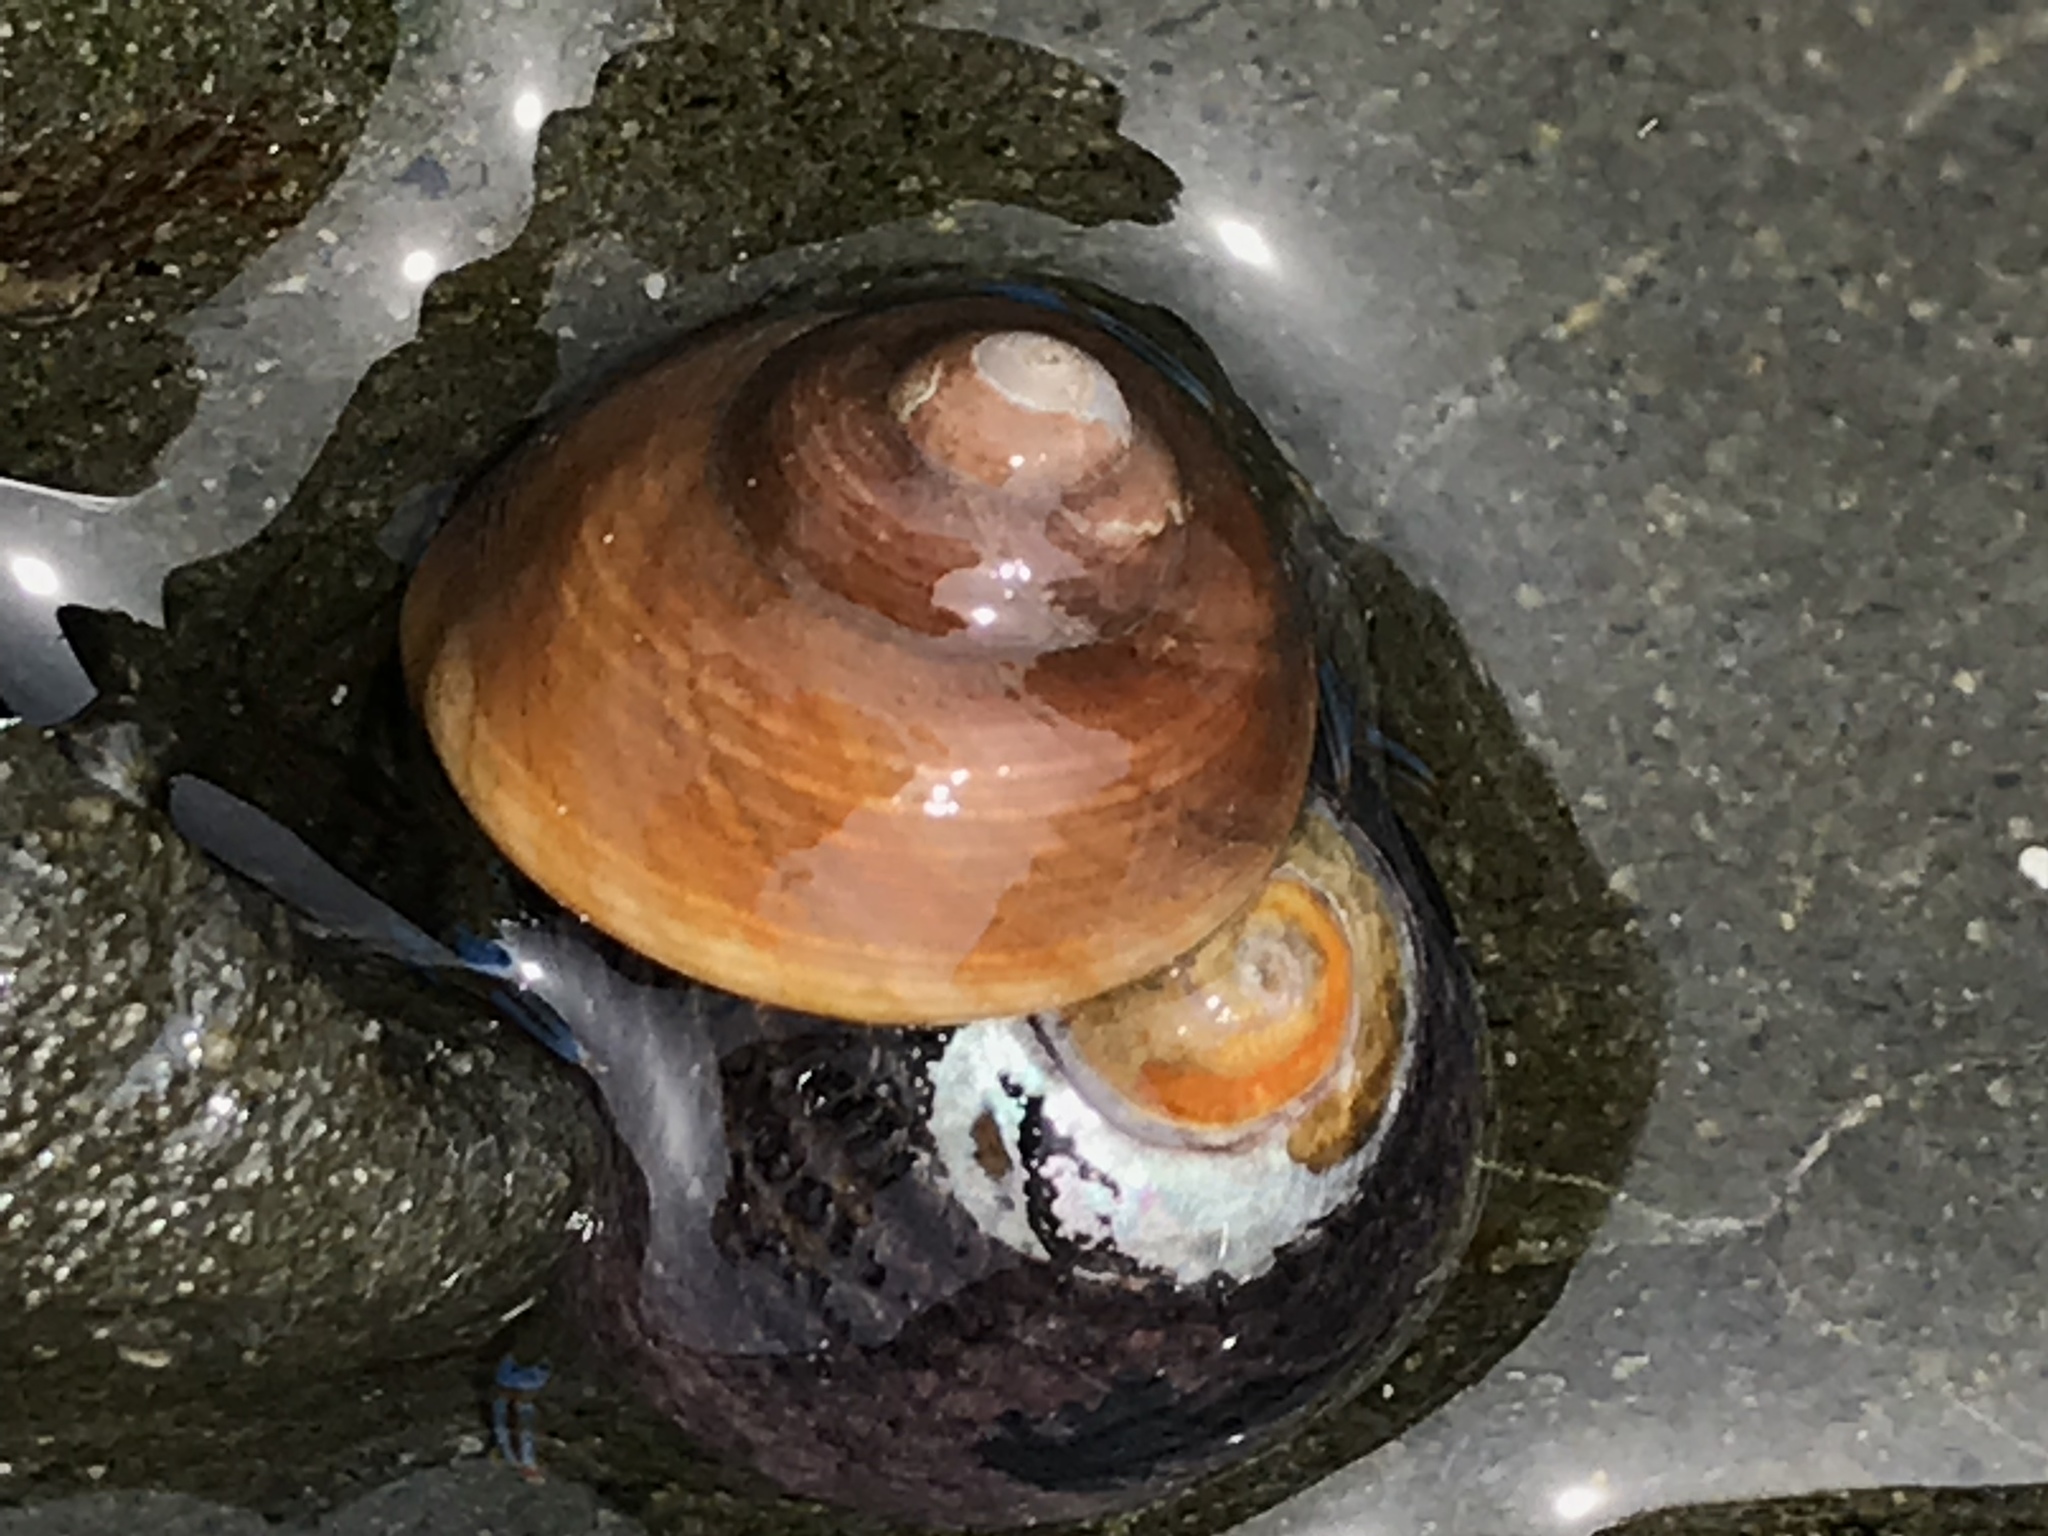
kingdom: Animalia
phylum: Mollusca
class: Gastropoda
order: Trochida
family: Tegulidae
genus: Tegula
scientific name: Tegula brunnea
